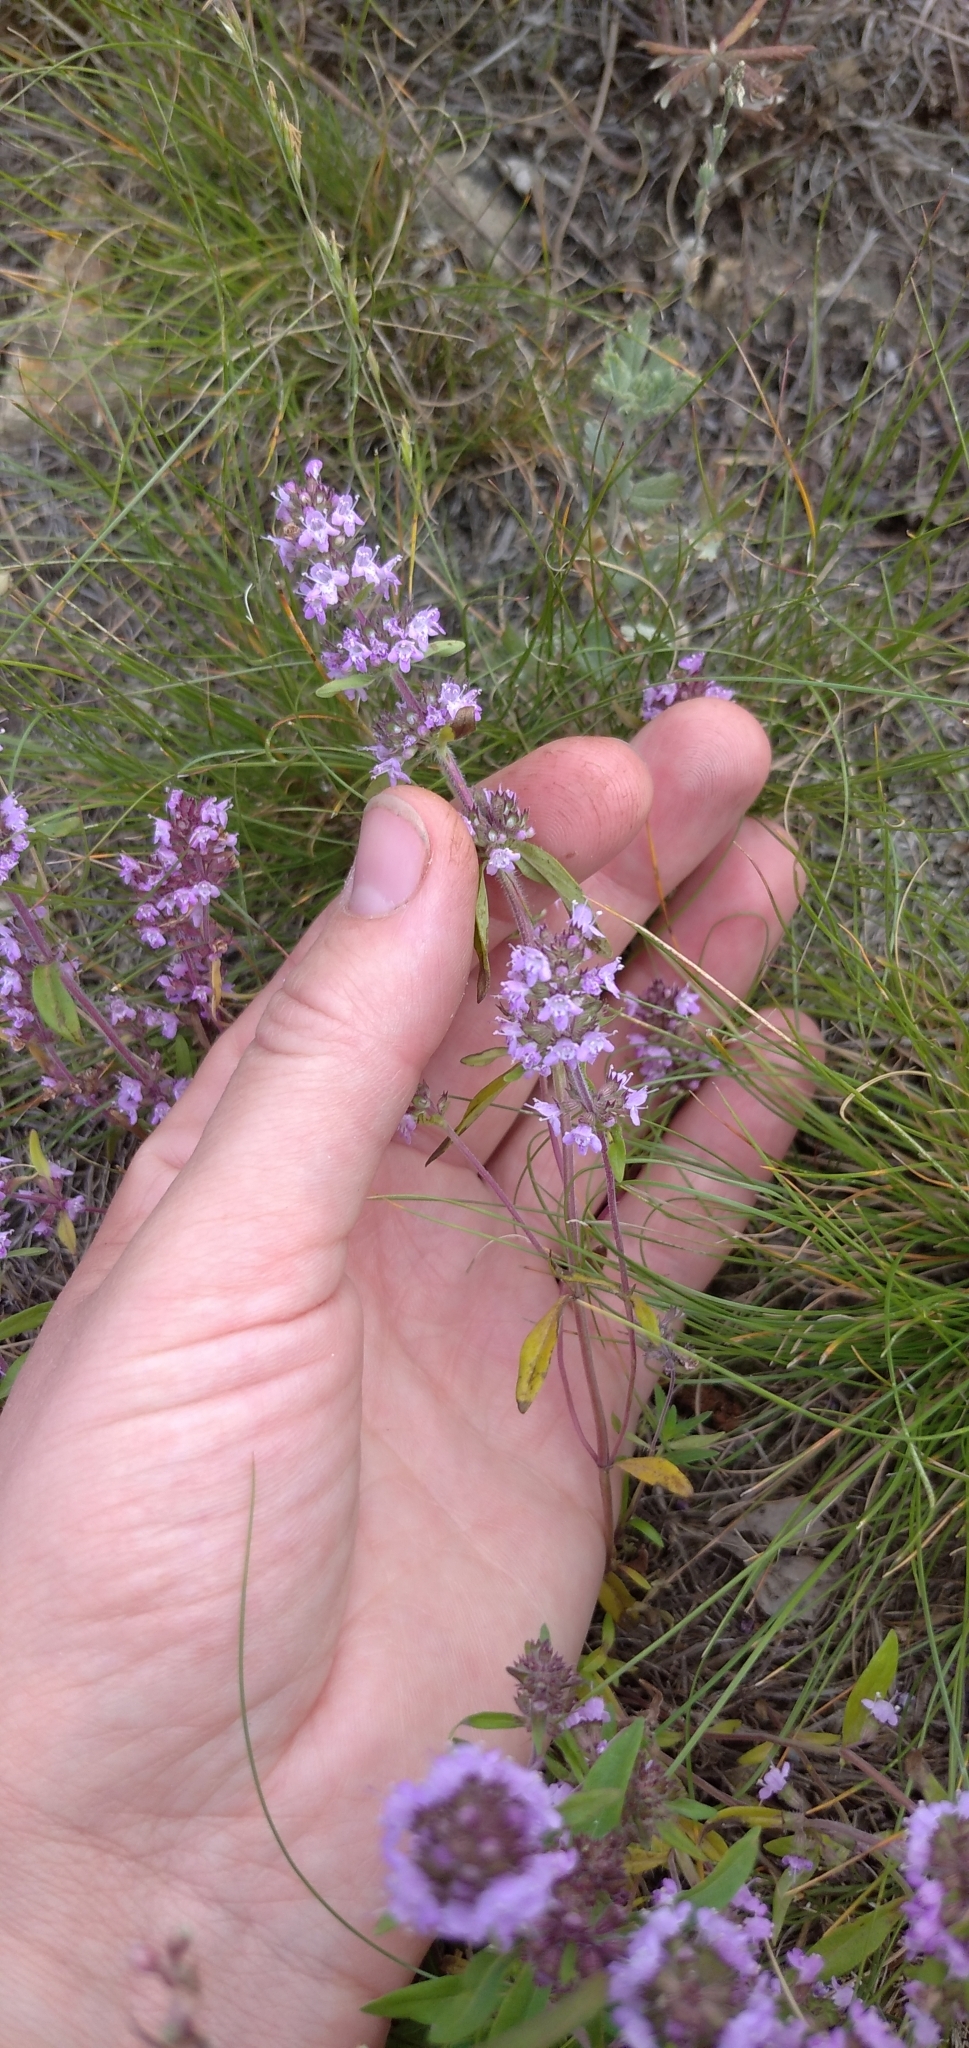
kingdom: Plantae
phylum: Tracheophyta
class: Magnoliopsida
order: Lamiales
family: Lamiaceae
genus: Thymus
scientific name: Thymus pannonicus
